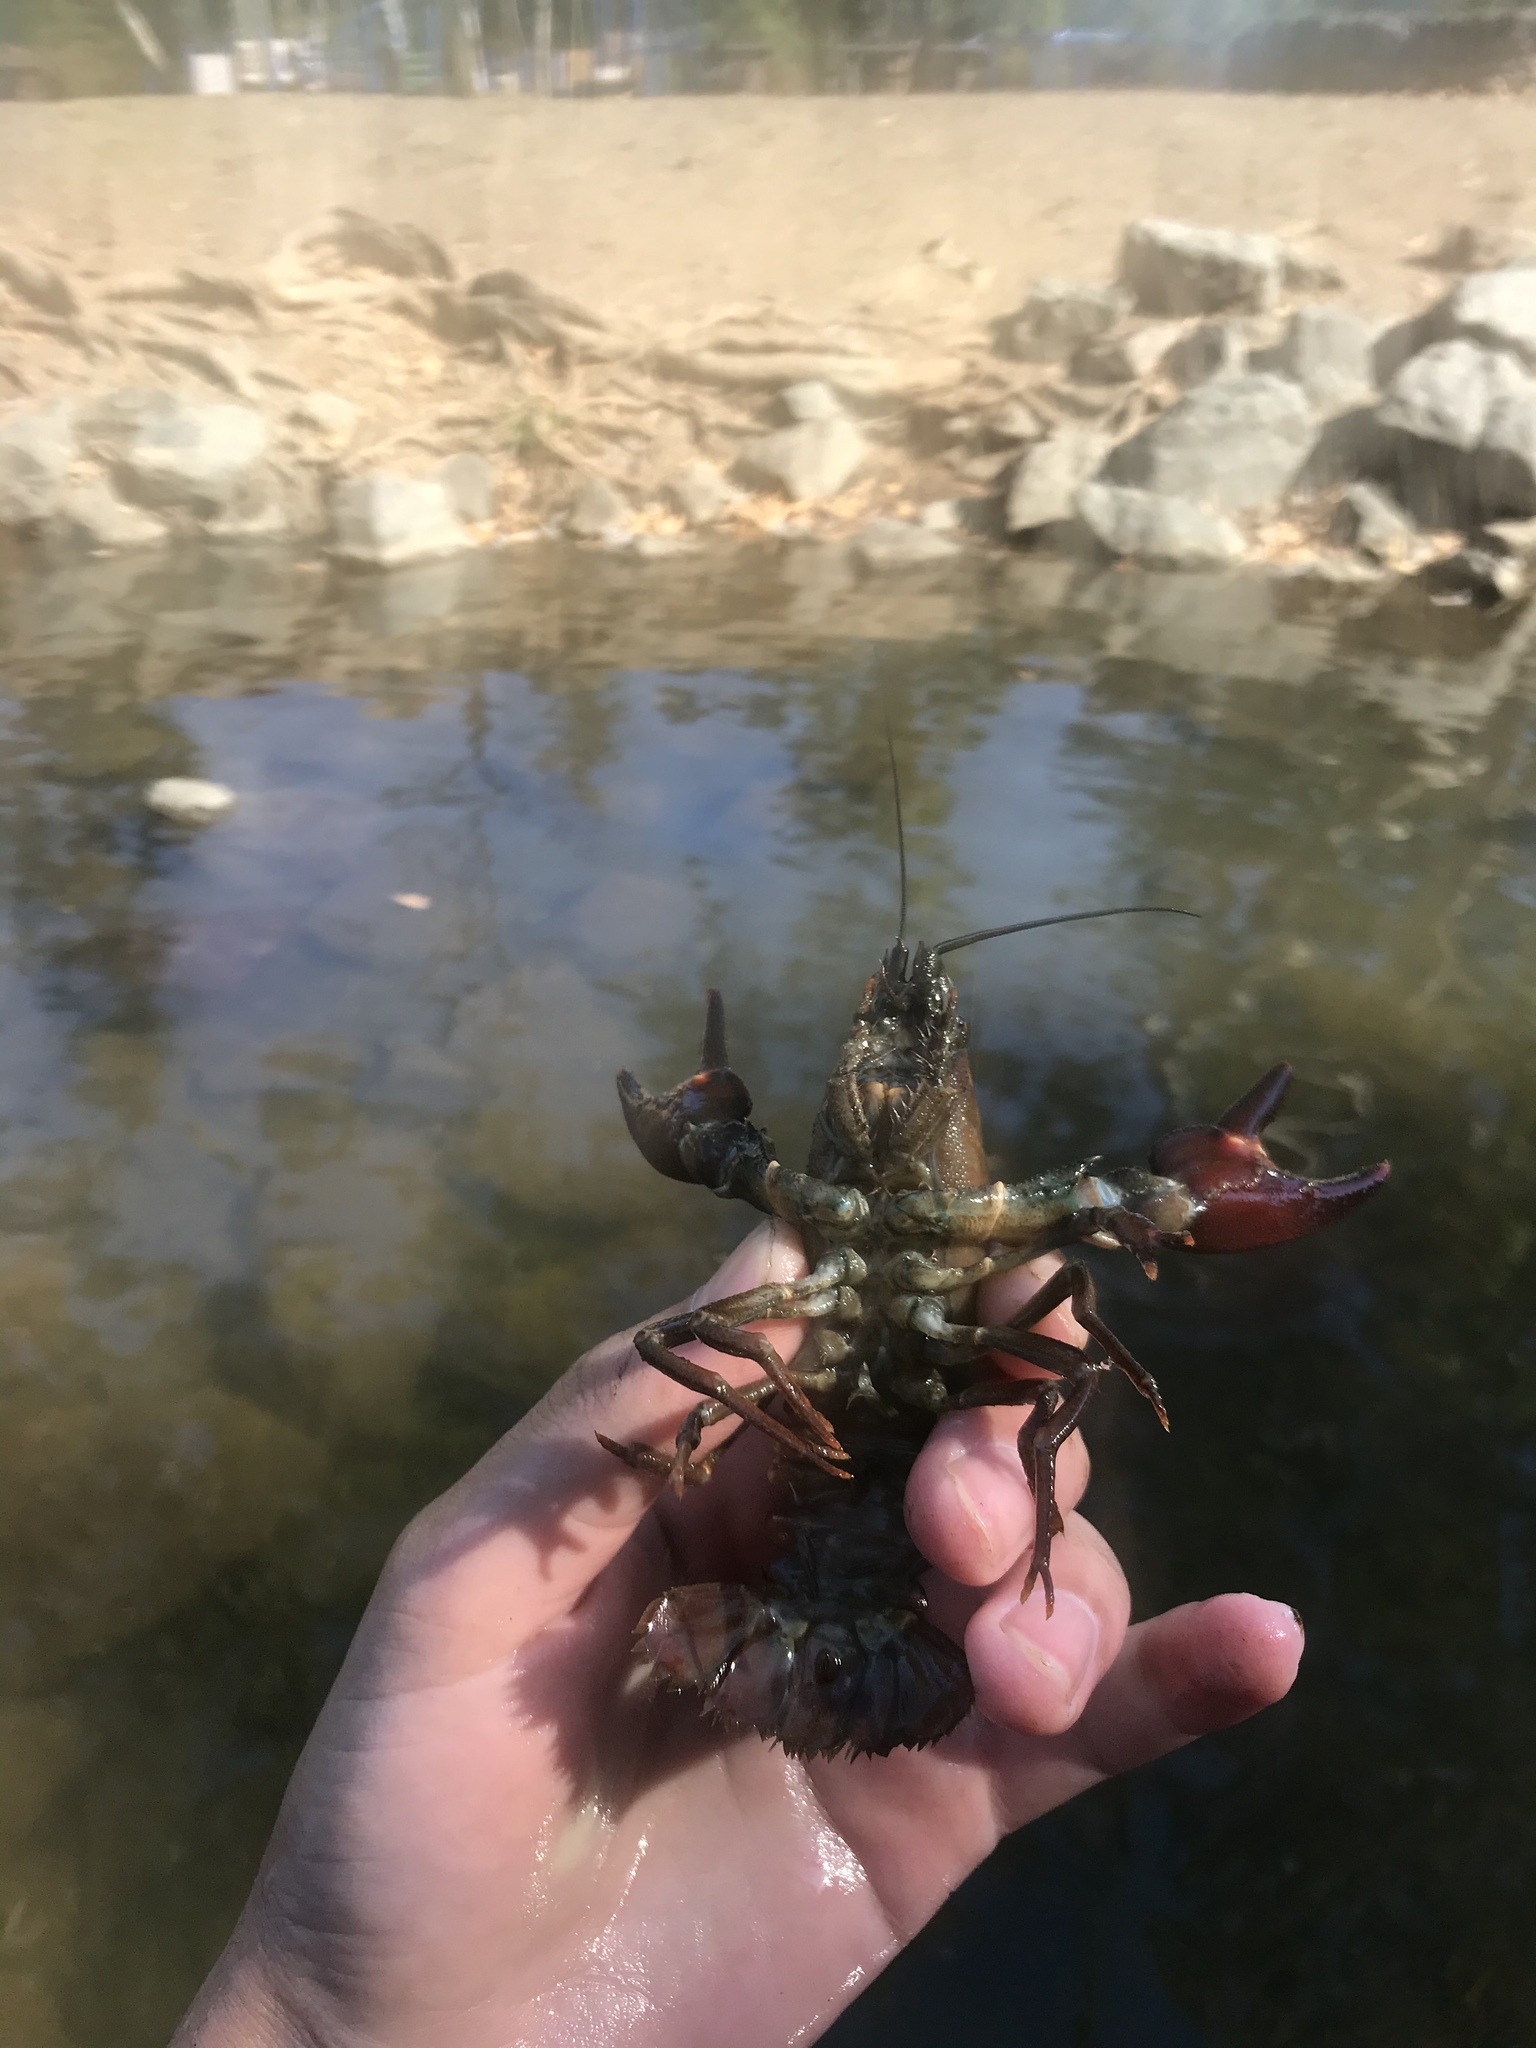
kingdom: Animalia
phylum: Arthropoda
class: Malacostraca
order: Decapoda
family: Astacidae
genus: Pacifastacus
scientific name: Pacifastacus leniusculus
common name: Signal crayfish
